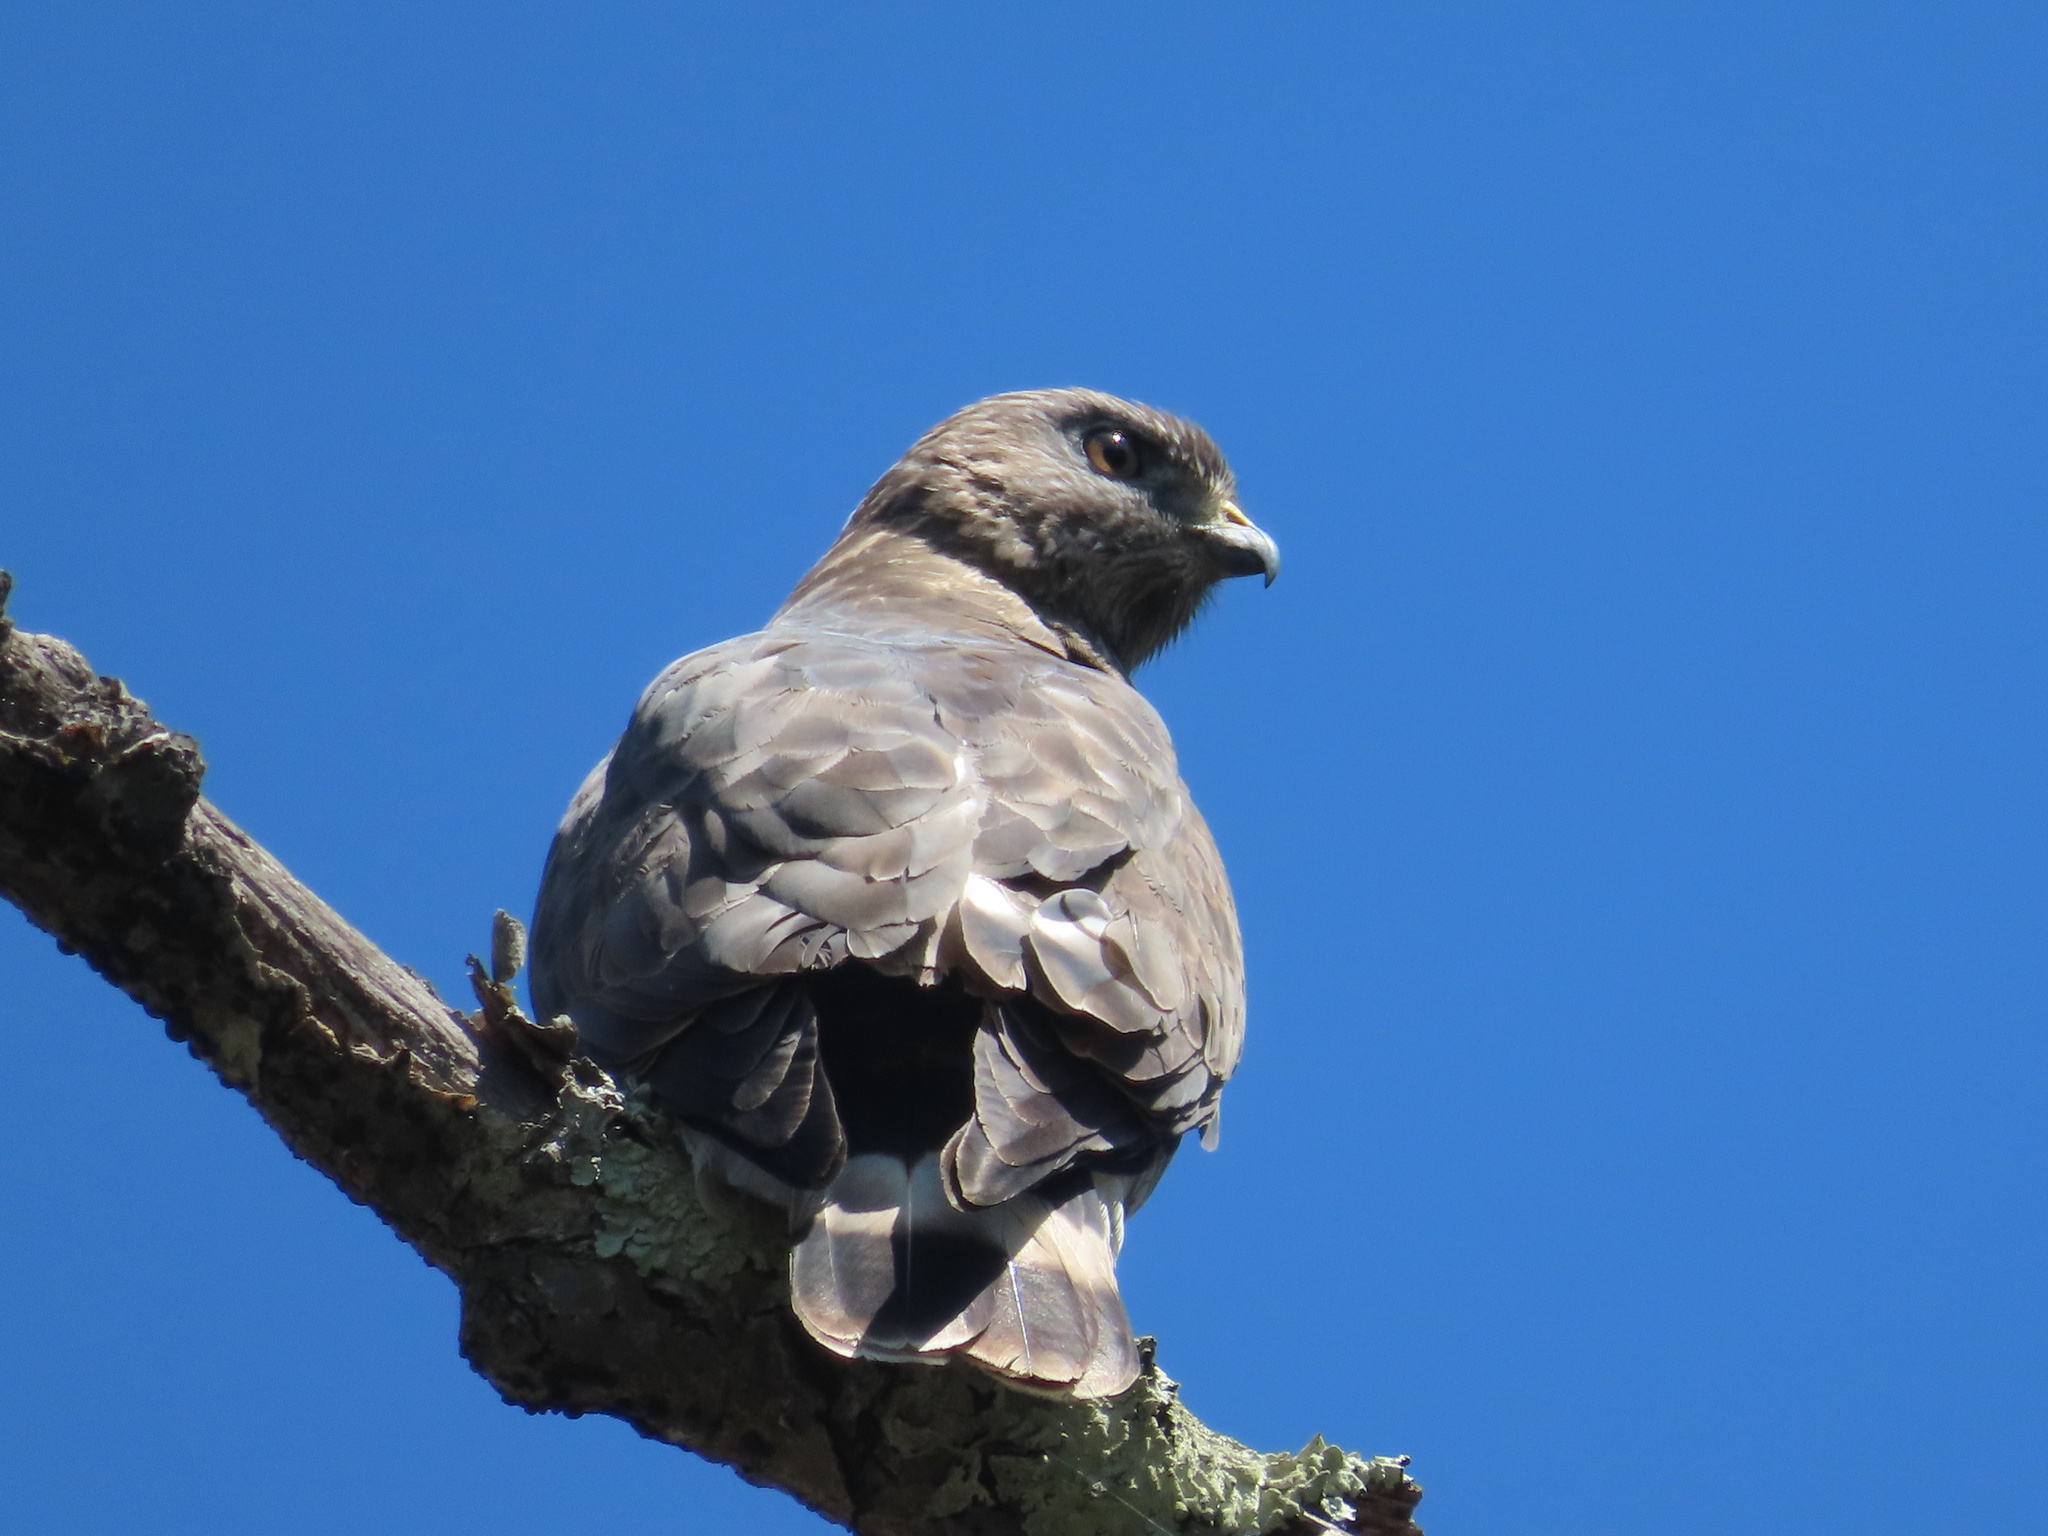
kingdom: Animalia
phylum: Chordata
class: Aves
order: Accipitriformes
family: Accipitridae
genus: Buteo
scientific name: Buteo platypterus
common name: Broad-winged hawk
